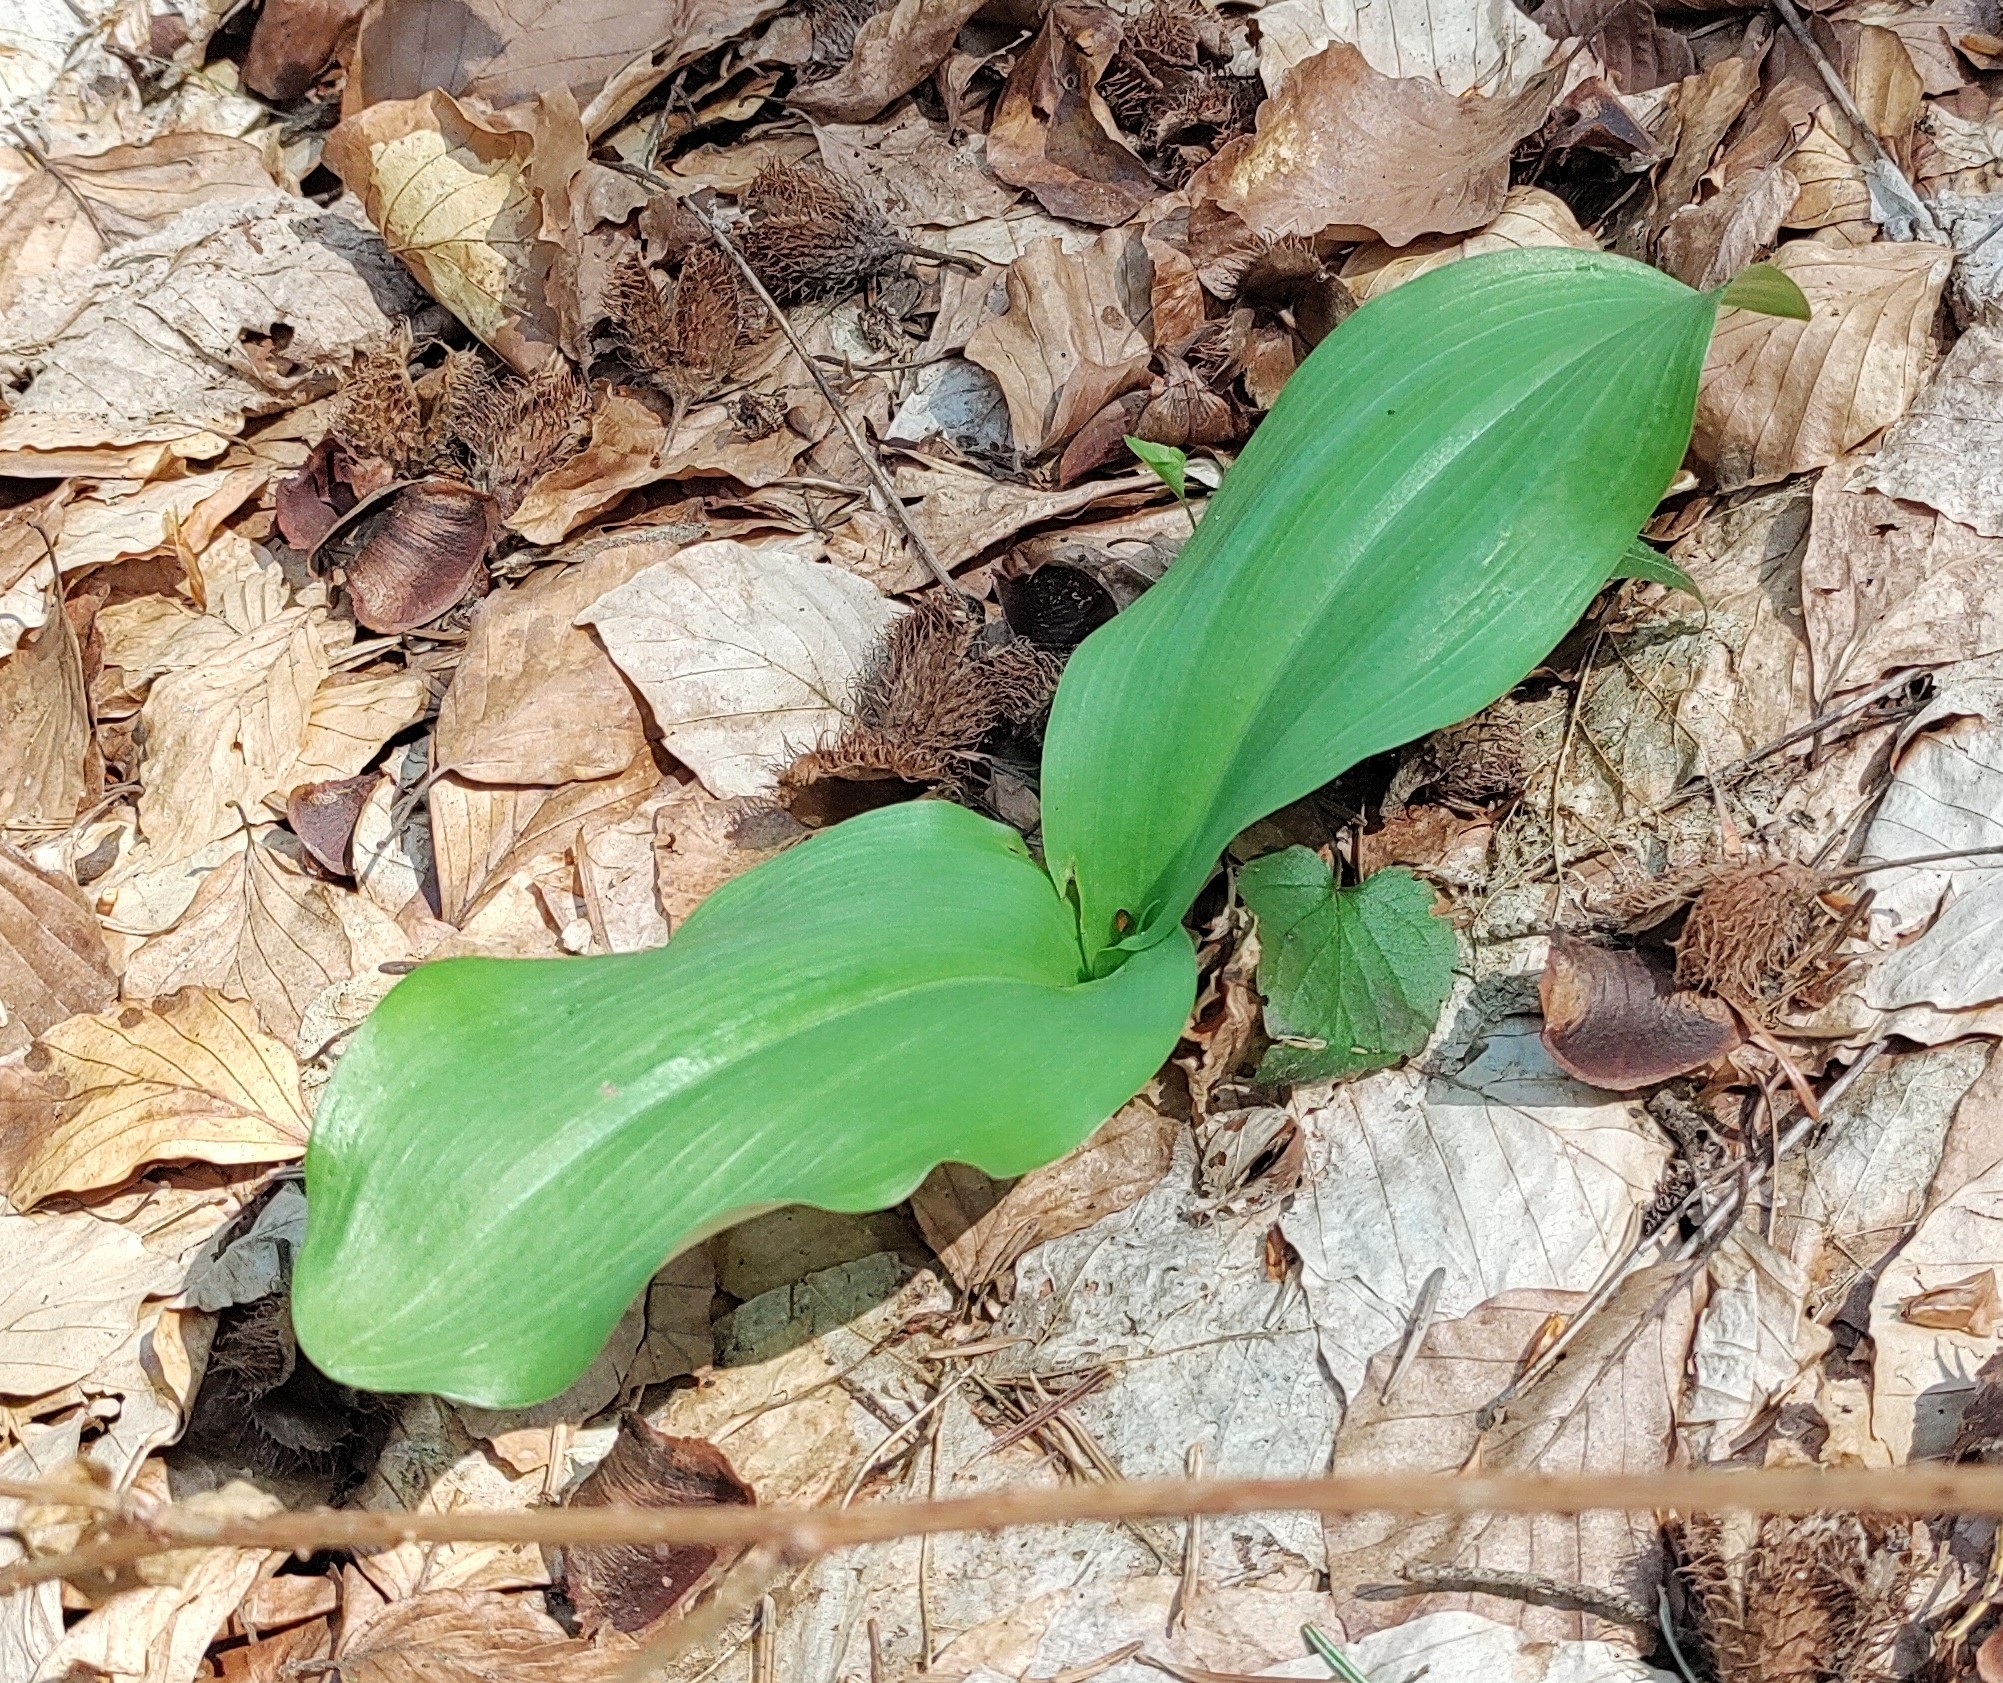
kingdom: Plantae
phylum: Tracheophyta
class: Liliopsida
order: Asparagales
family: Amaryllidaceae
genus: Allium
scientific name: Allium ursinum
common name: Ramsons
